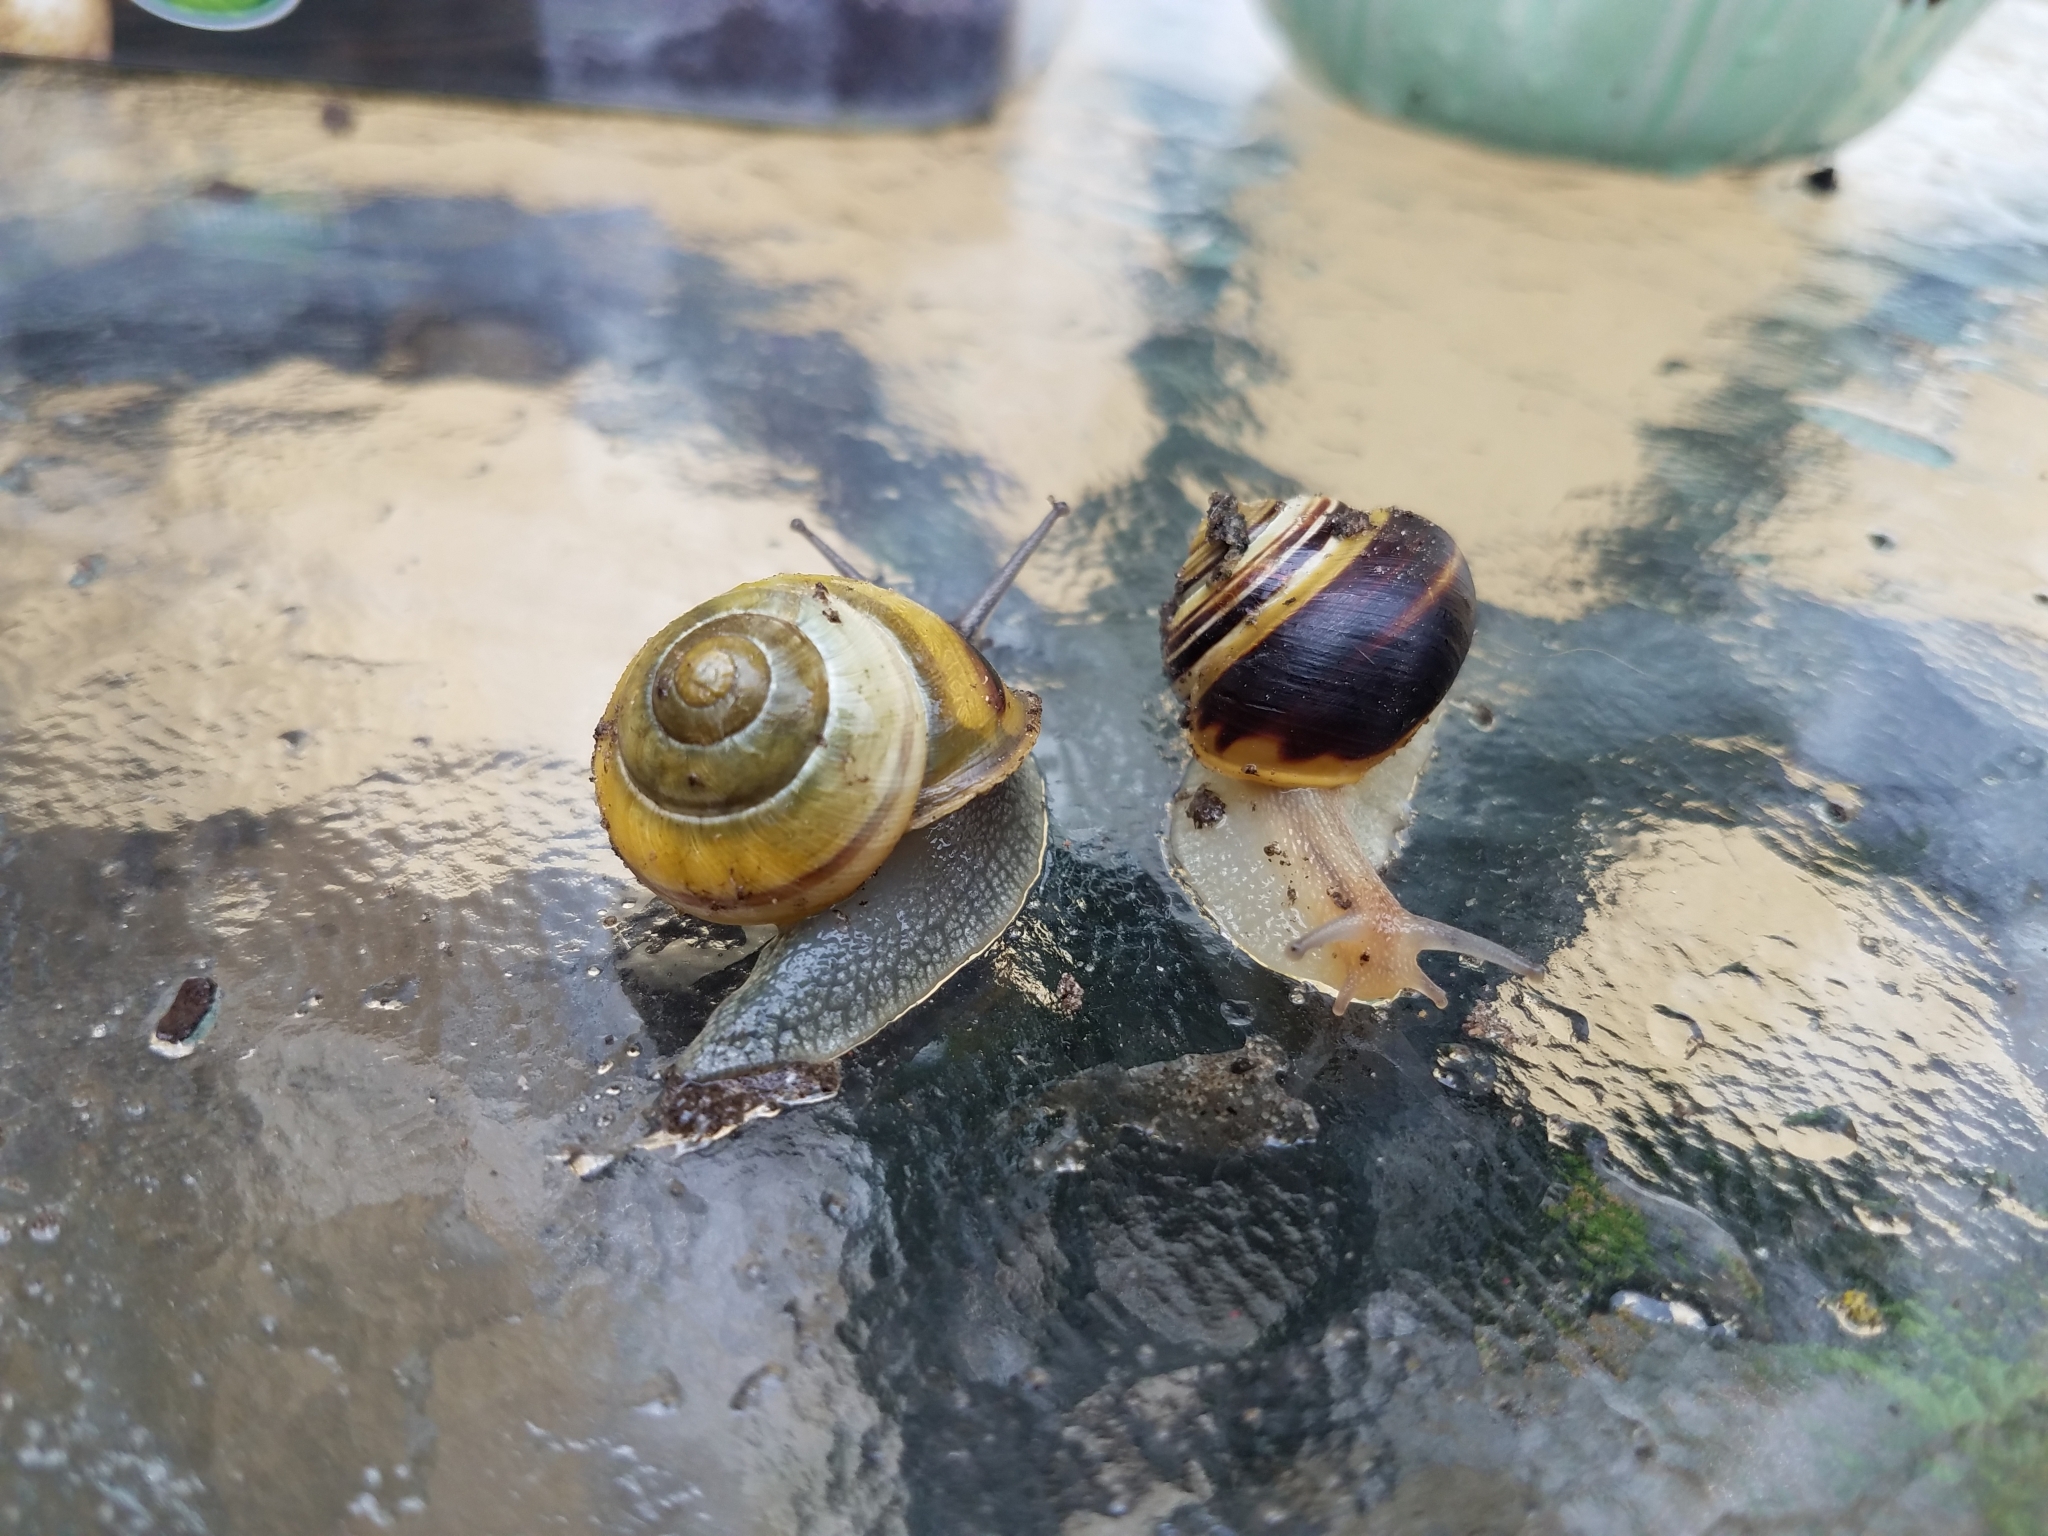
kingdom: Animalia
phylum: Mollusca
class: Gastropoda
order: Stylommatophora
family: Helicidae
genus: Cepaea
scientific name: Cepaea hortensis
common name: White-lip gardensnail
